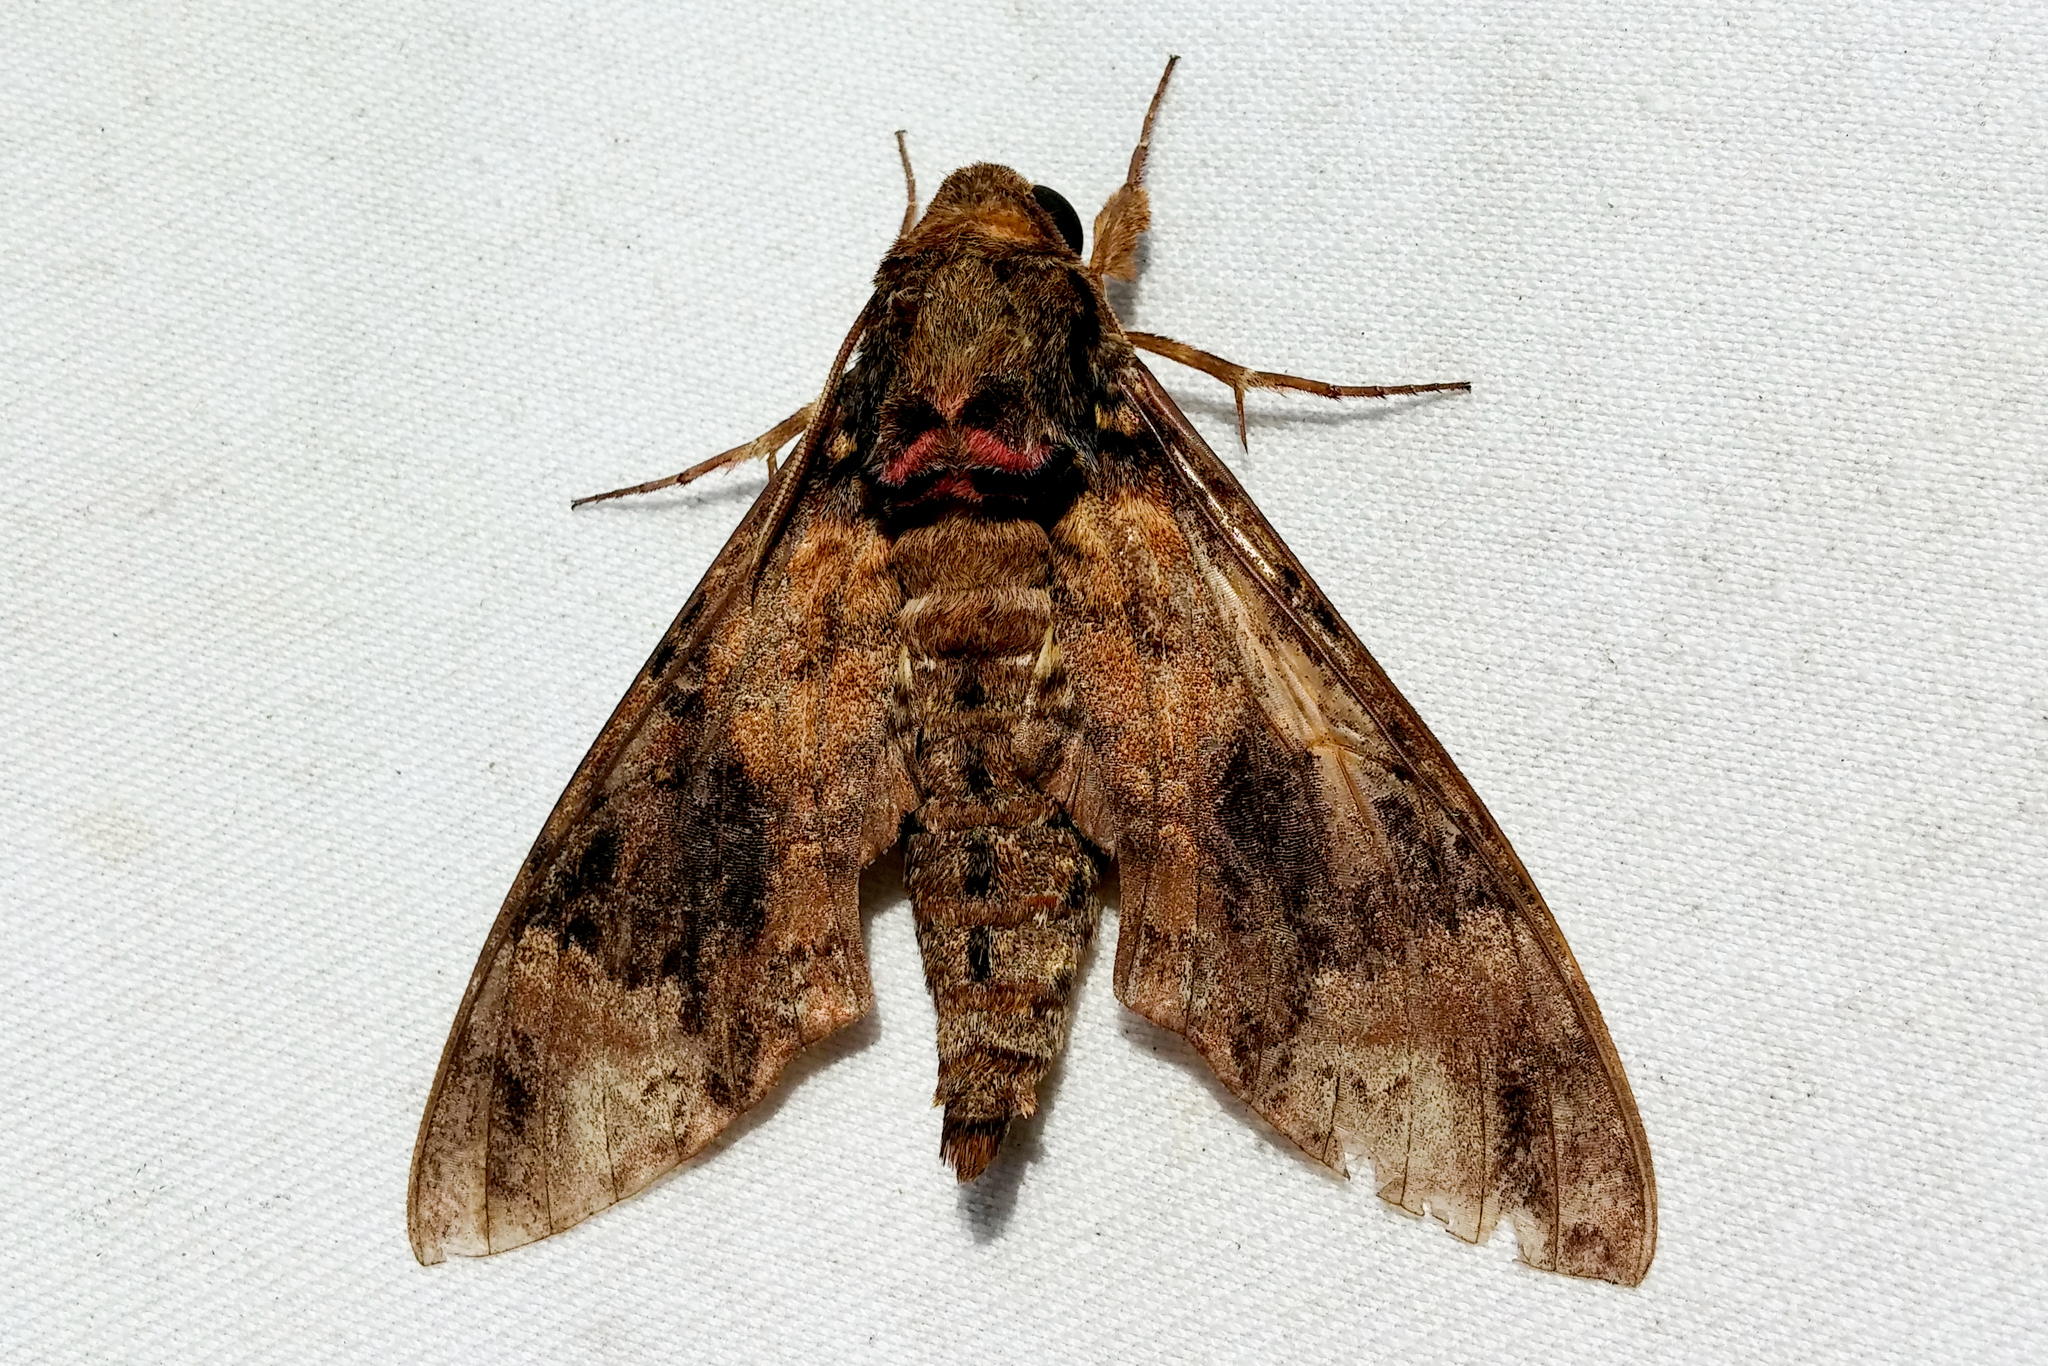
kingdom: Animalia
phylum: Arthropoda
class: Insecta
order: Lepidoptera
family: Sphingidae
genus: Coelonia
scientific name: Coelonia fulvinotata
